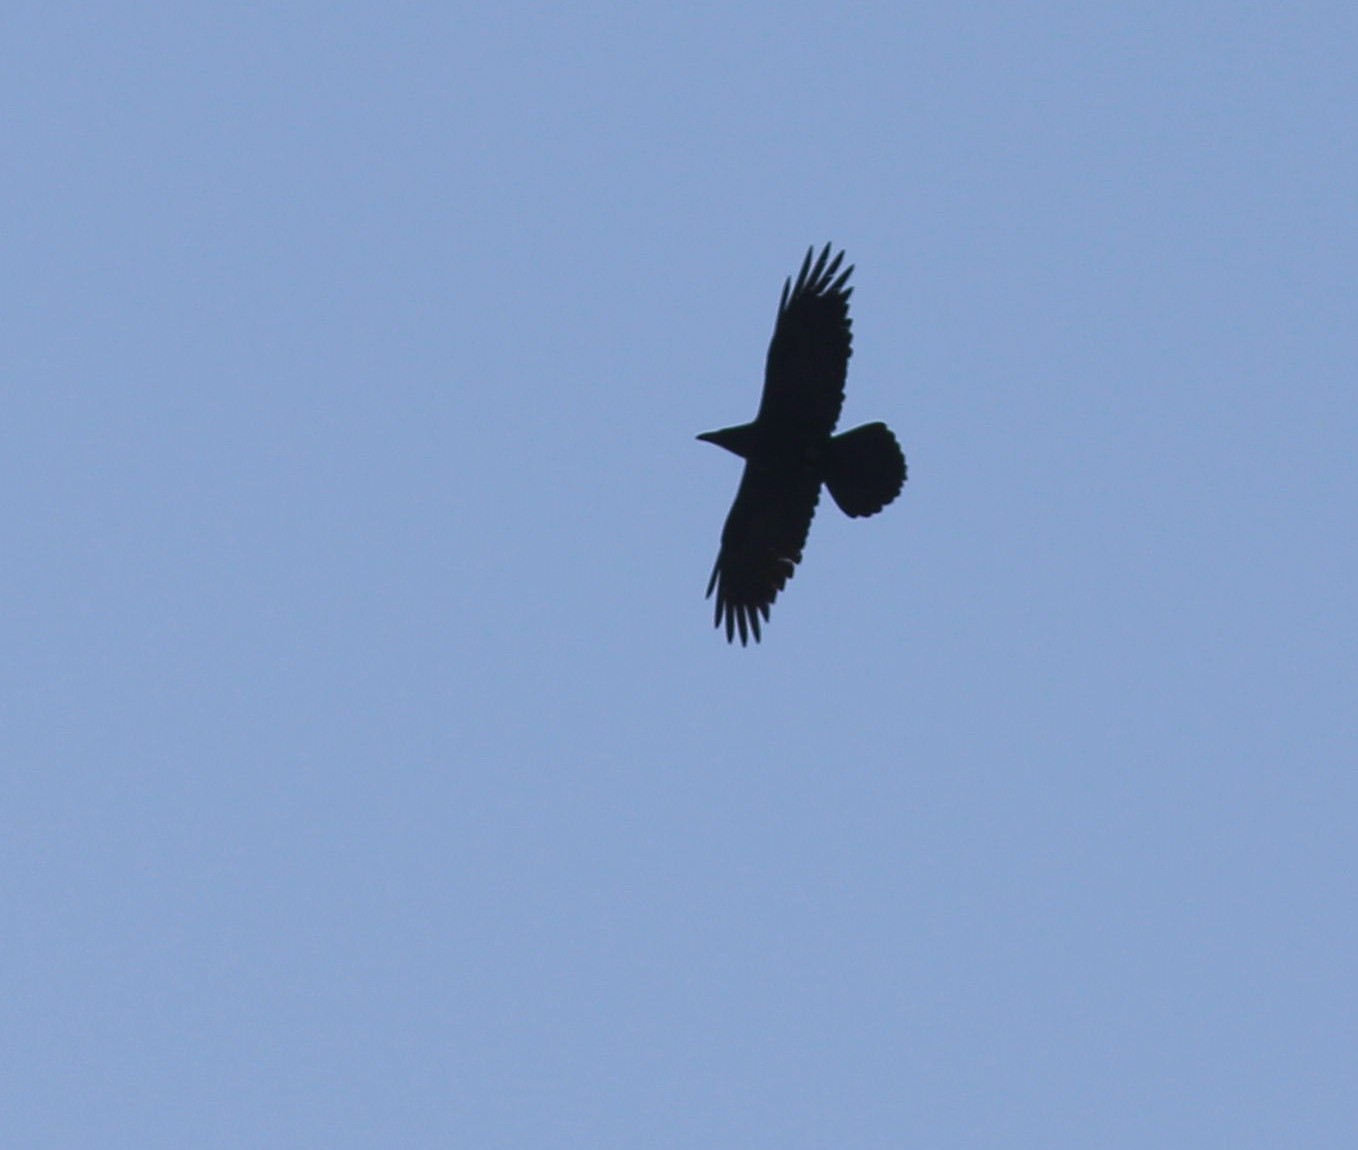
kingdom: Animalia
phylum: Chordata
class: Aves
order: Passeriformes
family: Corvidae
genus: Corvus
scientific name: Corvus corax
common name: Common raven
